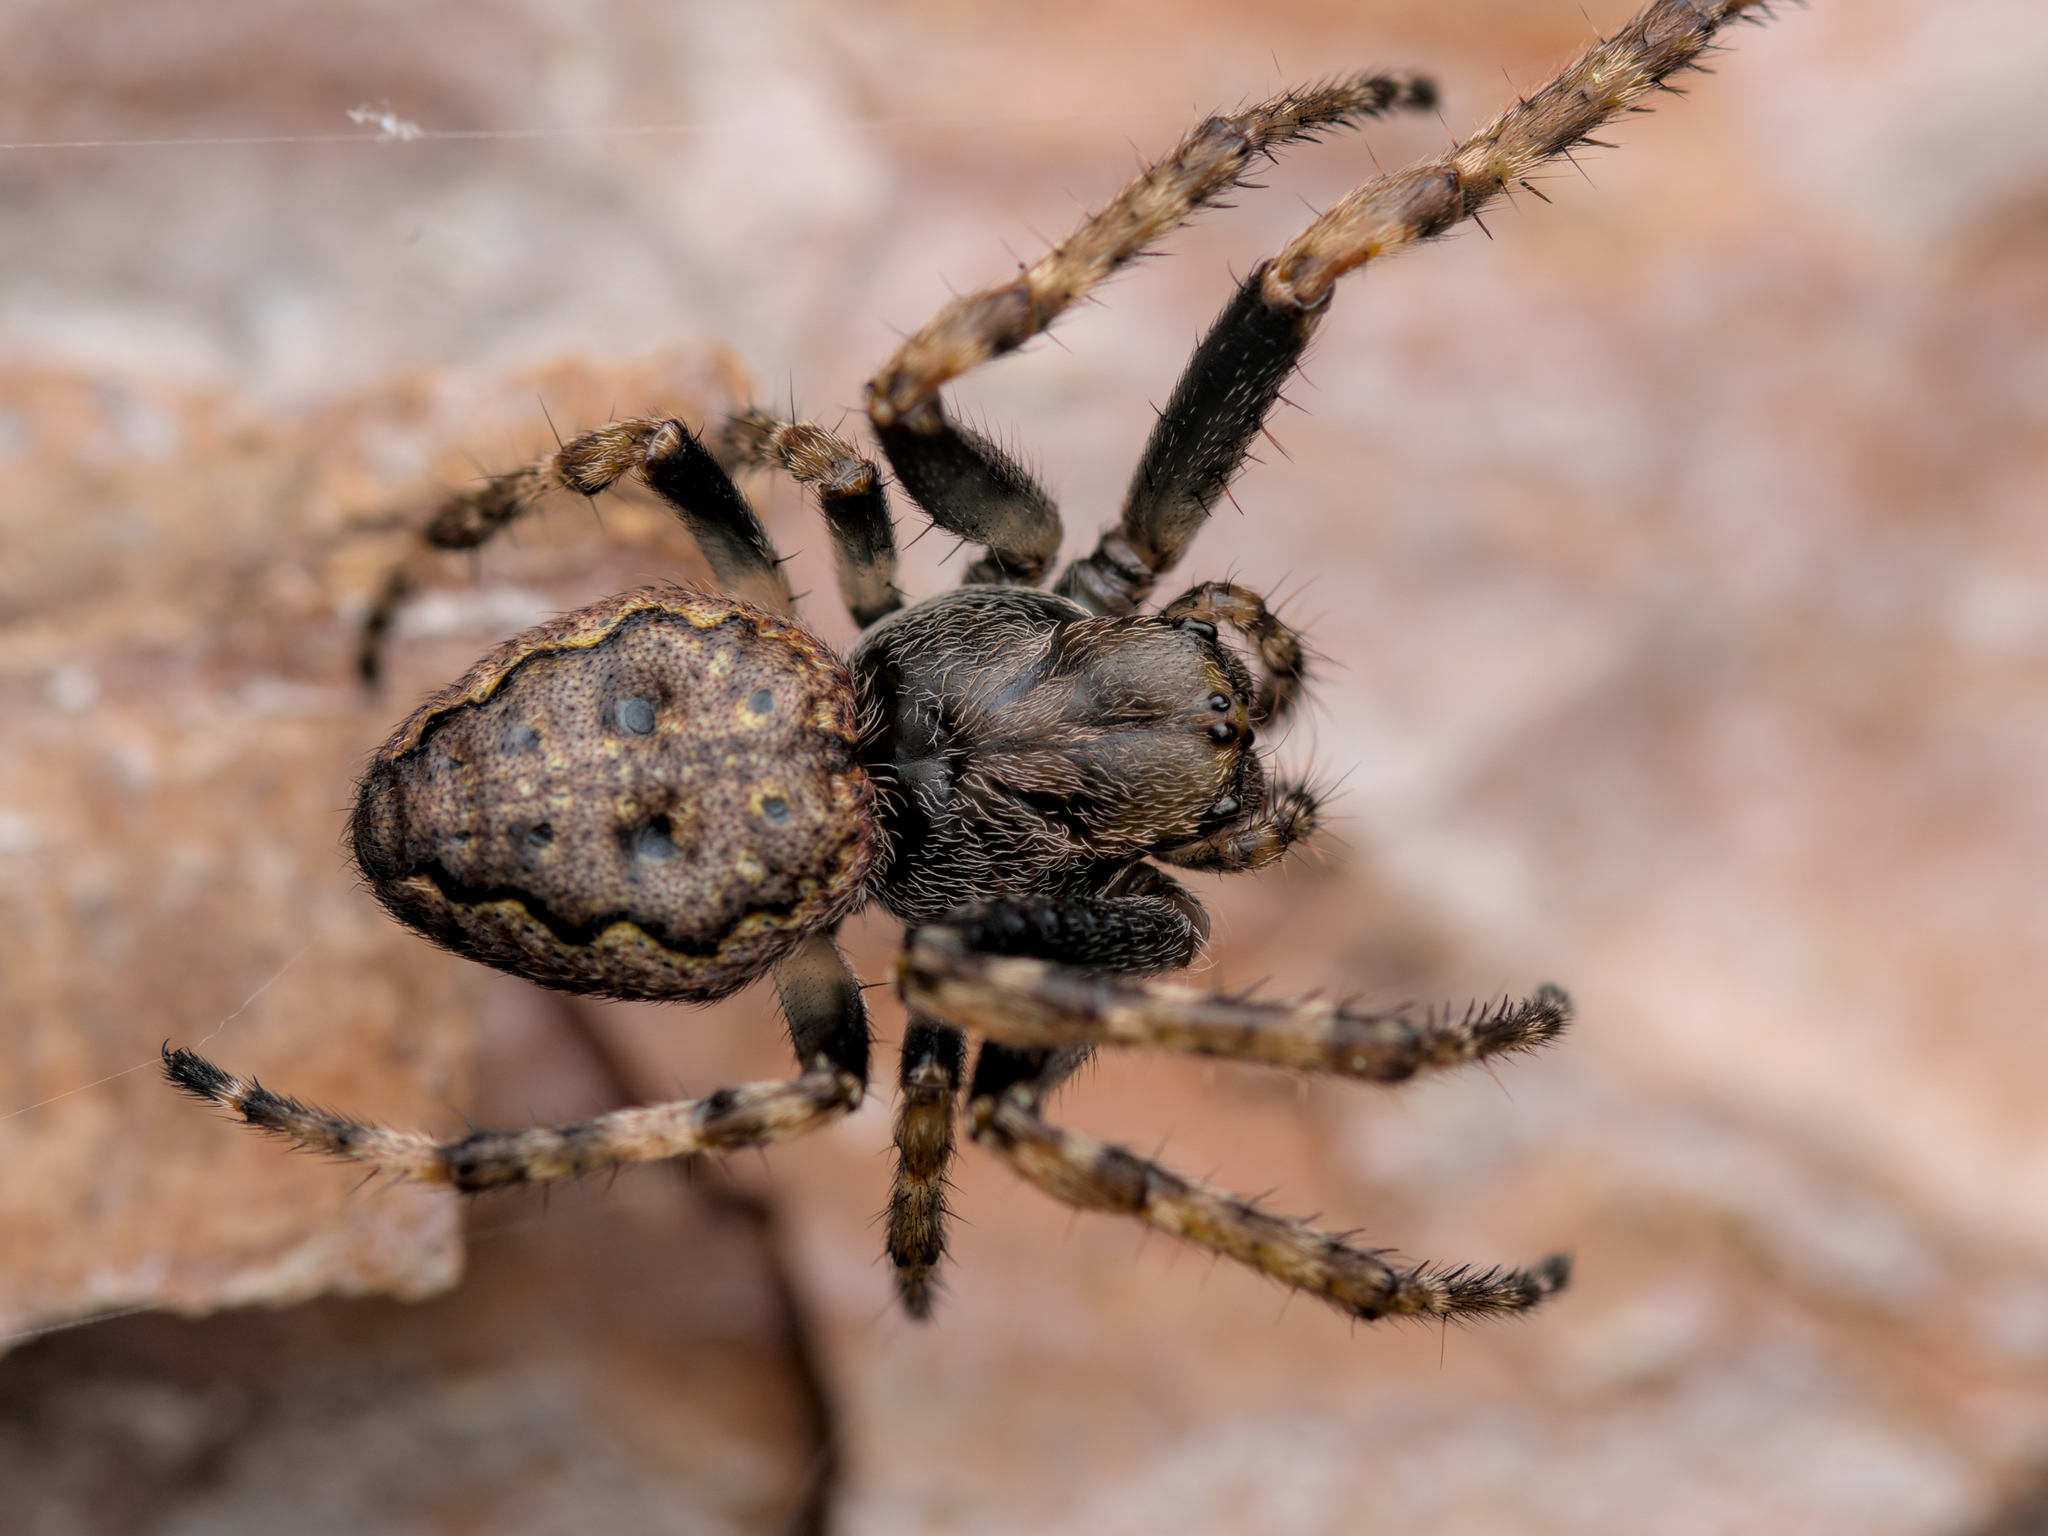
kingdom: Animalia
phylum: Arthropoda
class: Arachnida
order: Araneae
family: Araneidae
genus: Nuctenea
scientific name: Nuctenea umbratica
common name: Toad spider
